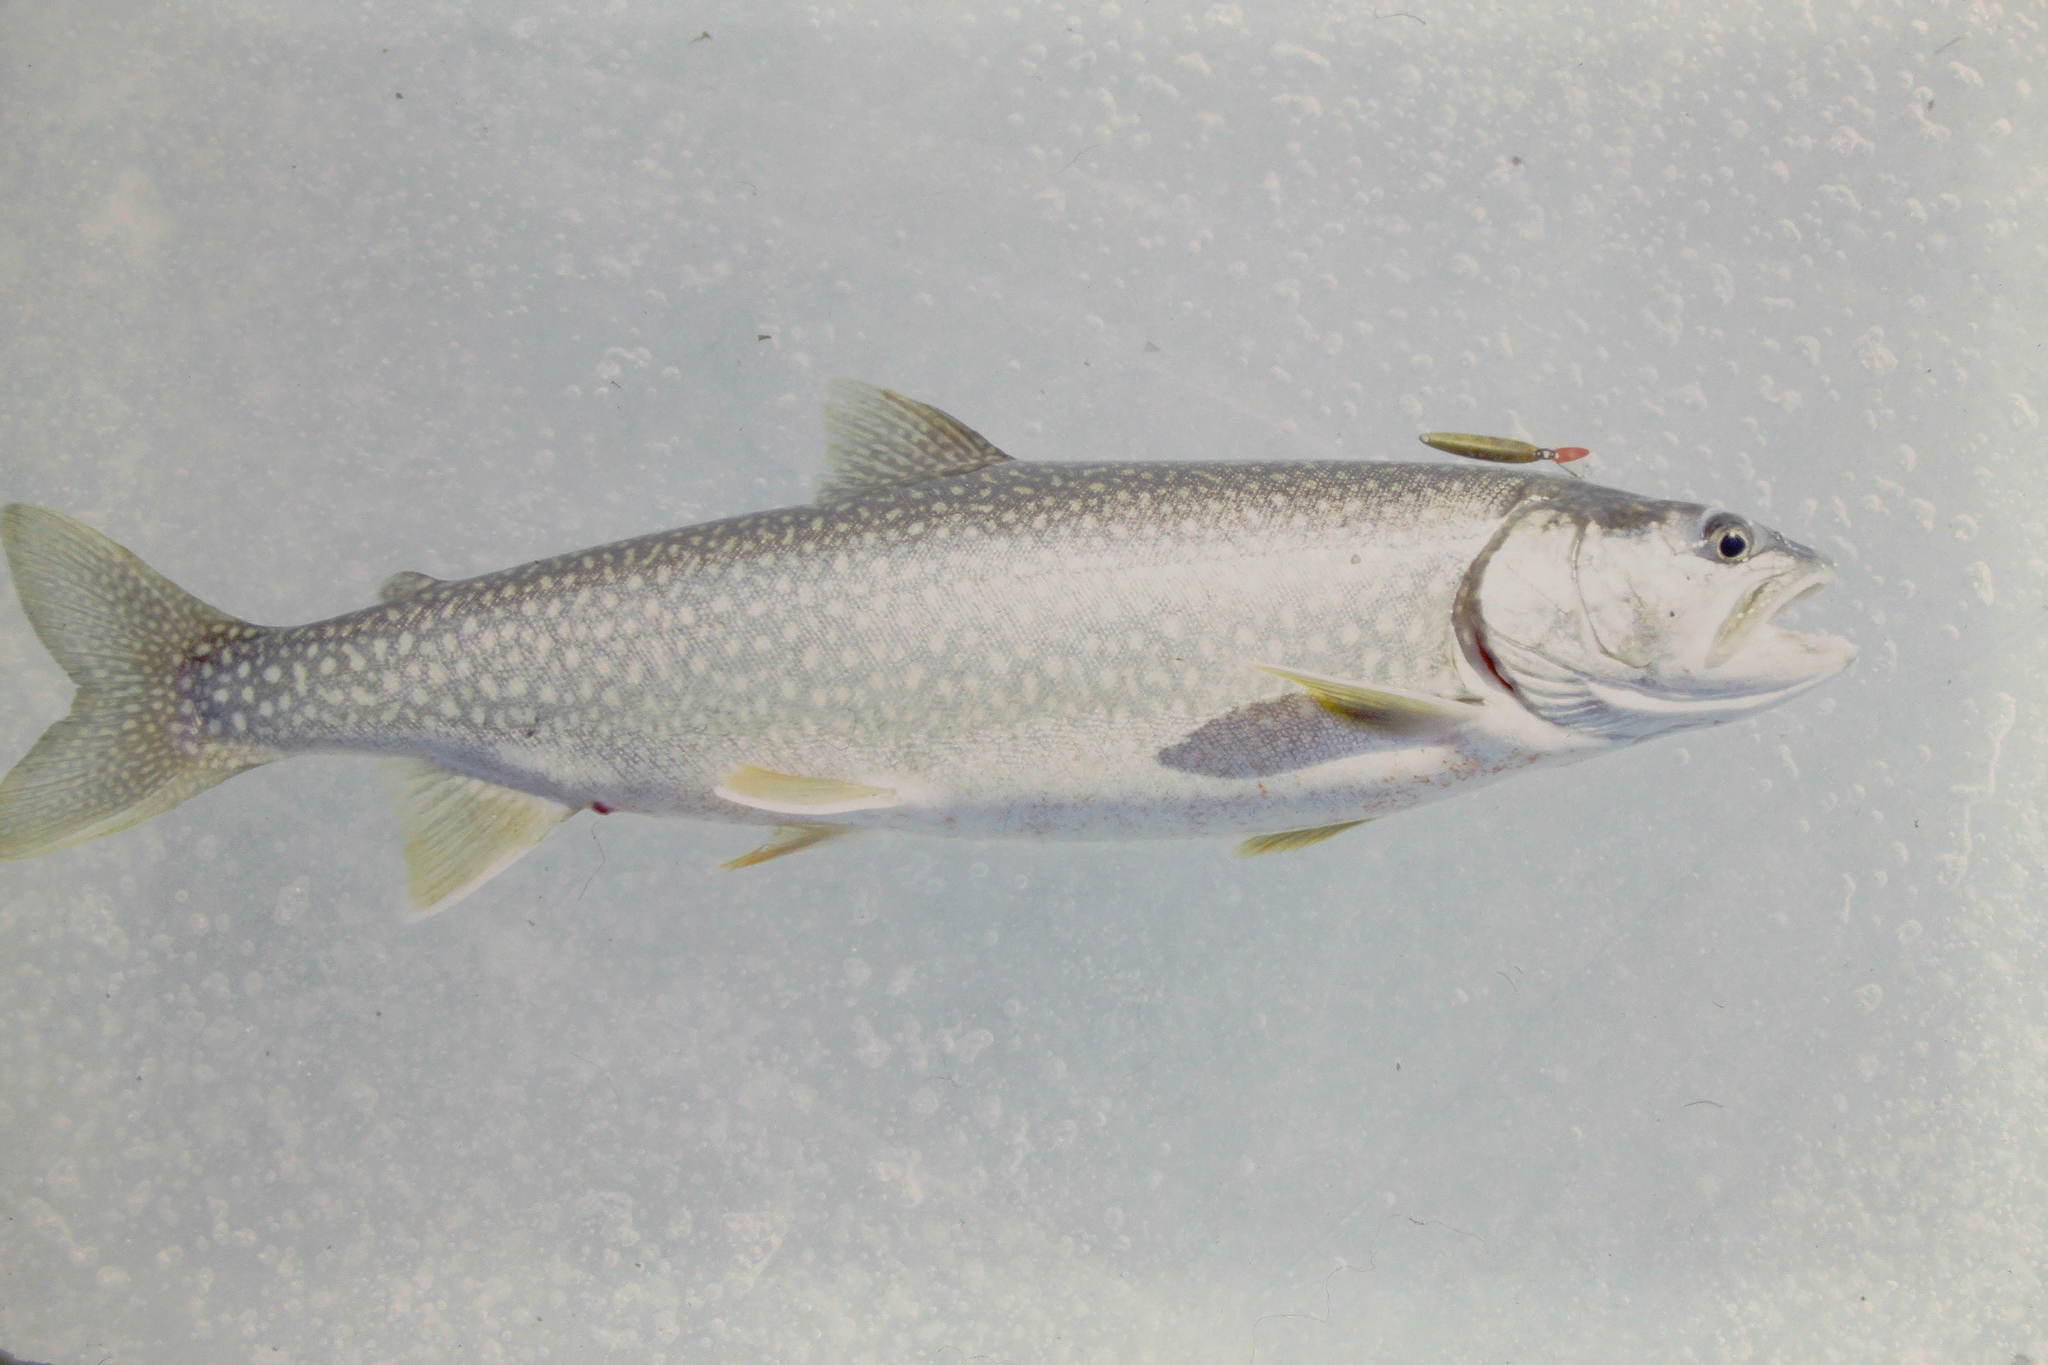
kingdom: Animalia
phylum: Chordata
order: Salmoniformes
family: Salmonidae
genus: Salvelinus
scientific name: Salvelinus namaycush
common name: American lake charr
